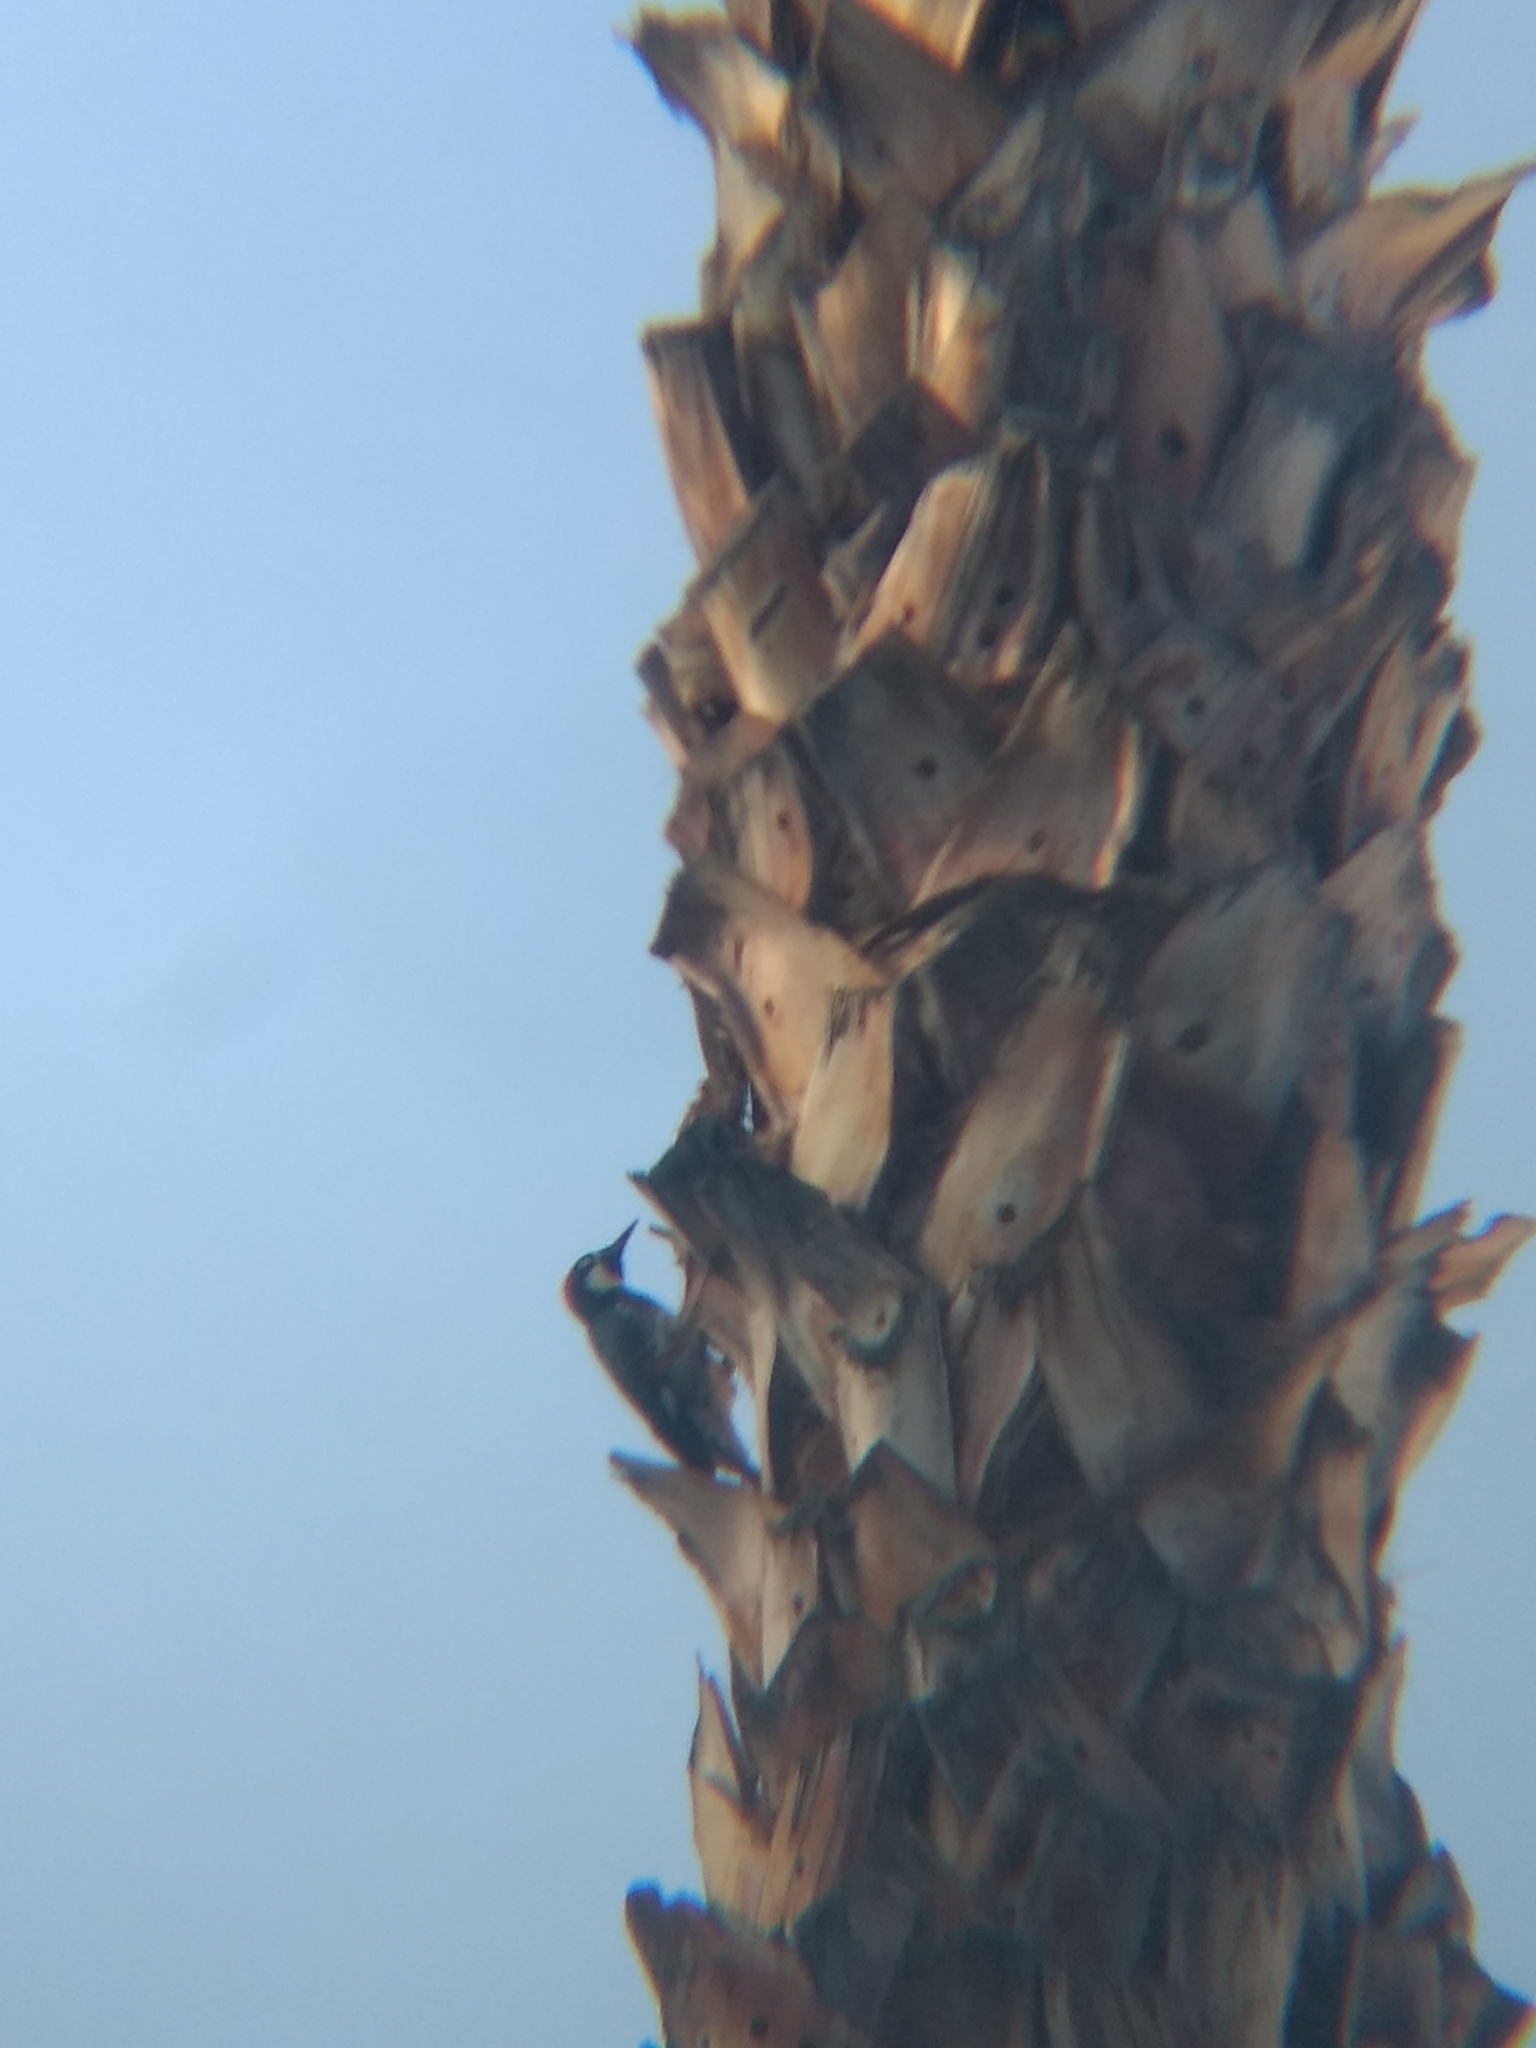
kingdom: Animalia
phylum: Chordata
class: Aves
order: Piciformes
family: Picidae
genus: Melanerpes
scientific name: Melanerpes formicivorus
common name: Acorn woodpecker
